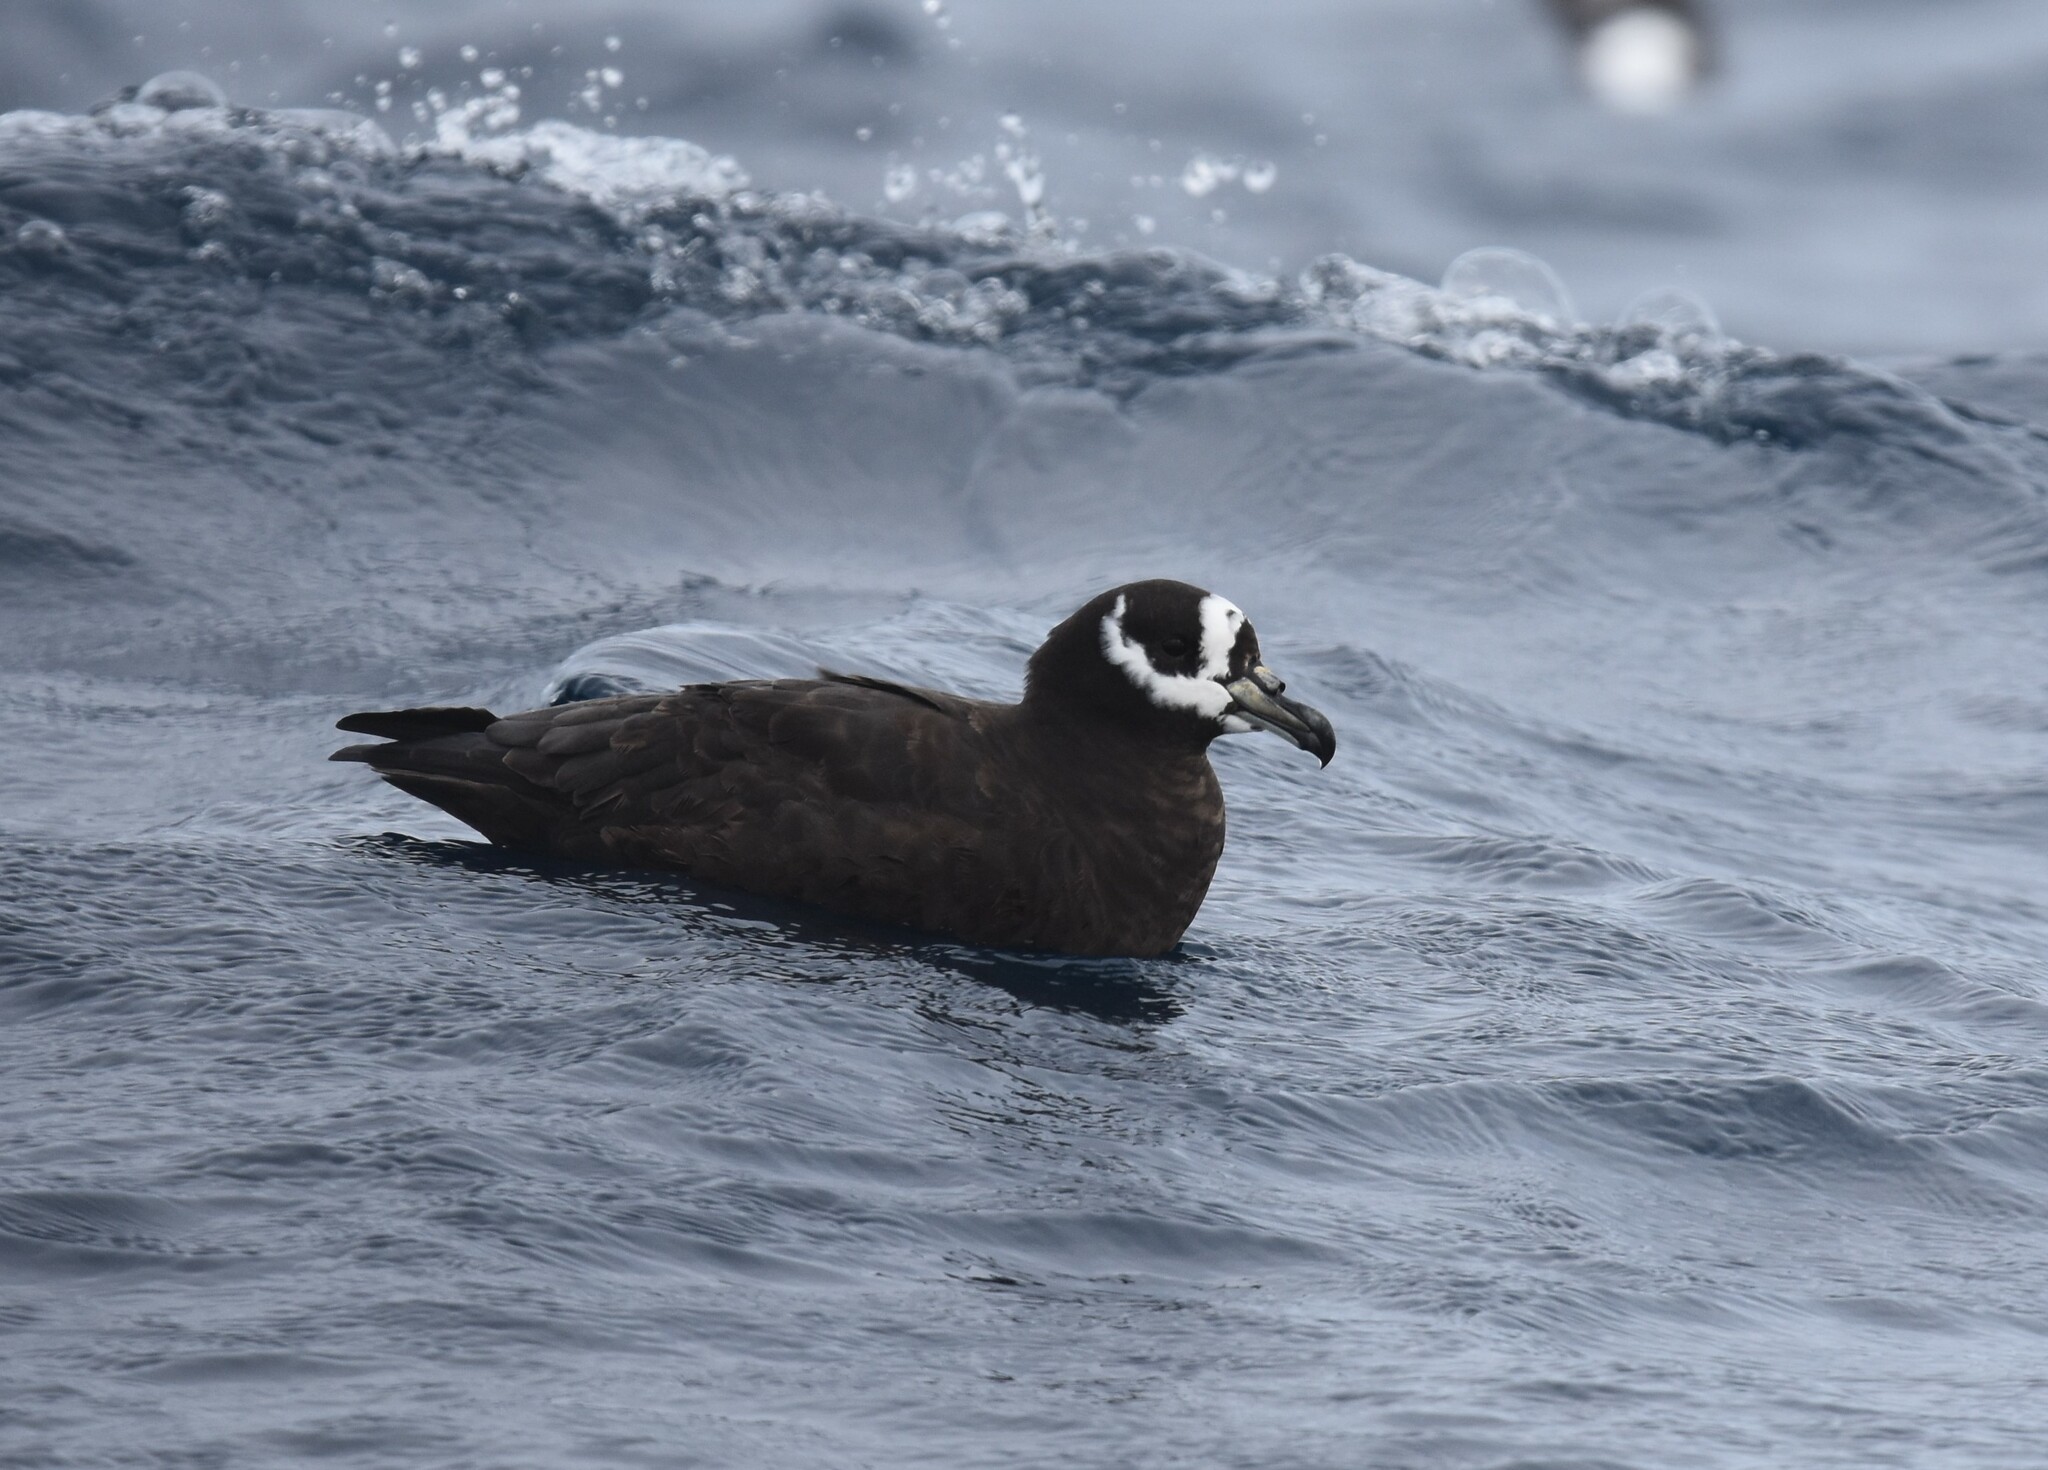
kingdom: Animalia
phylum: Chordata
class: Aves
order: Procellariiformes
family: Procellariidae
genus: Procellaria
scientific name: Procellaria conspicillata
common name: Spectacled petrel
